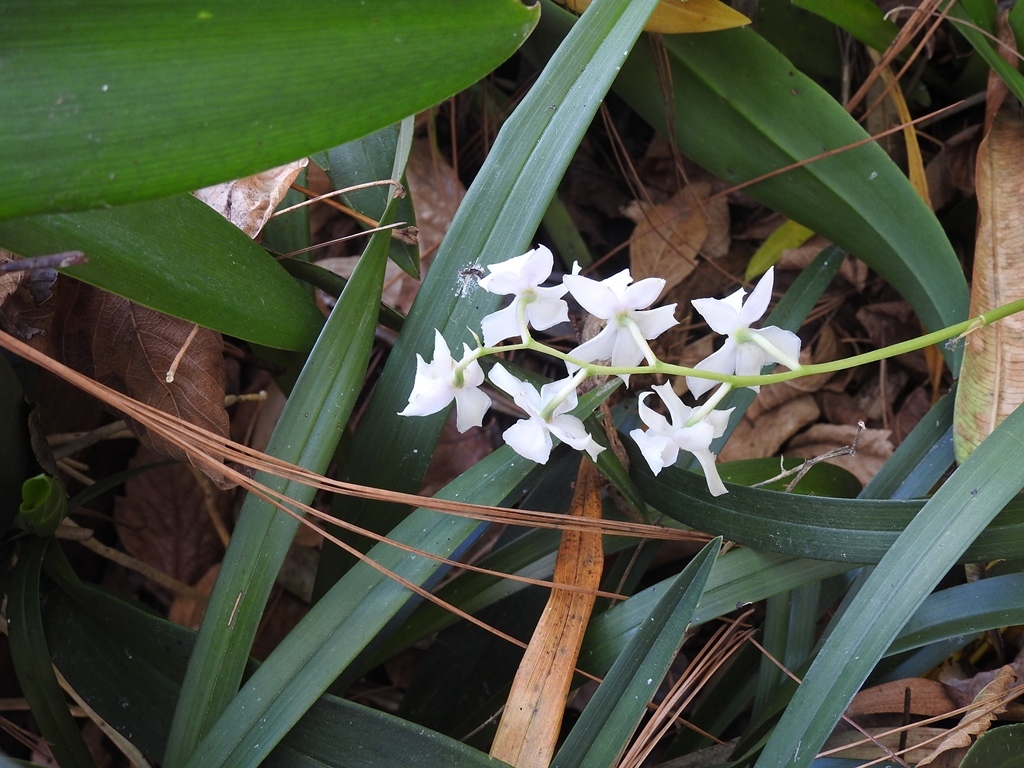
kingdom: Plantae
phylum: Tracheophyta
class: Liliopsida
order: Asparagales
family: Orchidaceae
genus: Cuitlauzina
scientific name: Cuitlauzina pulchella
